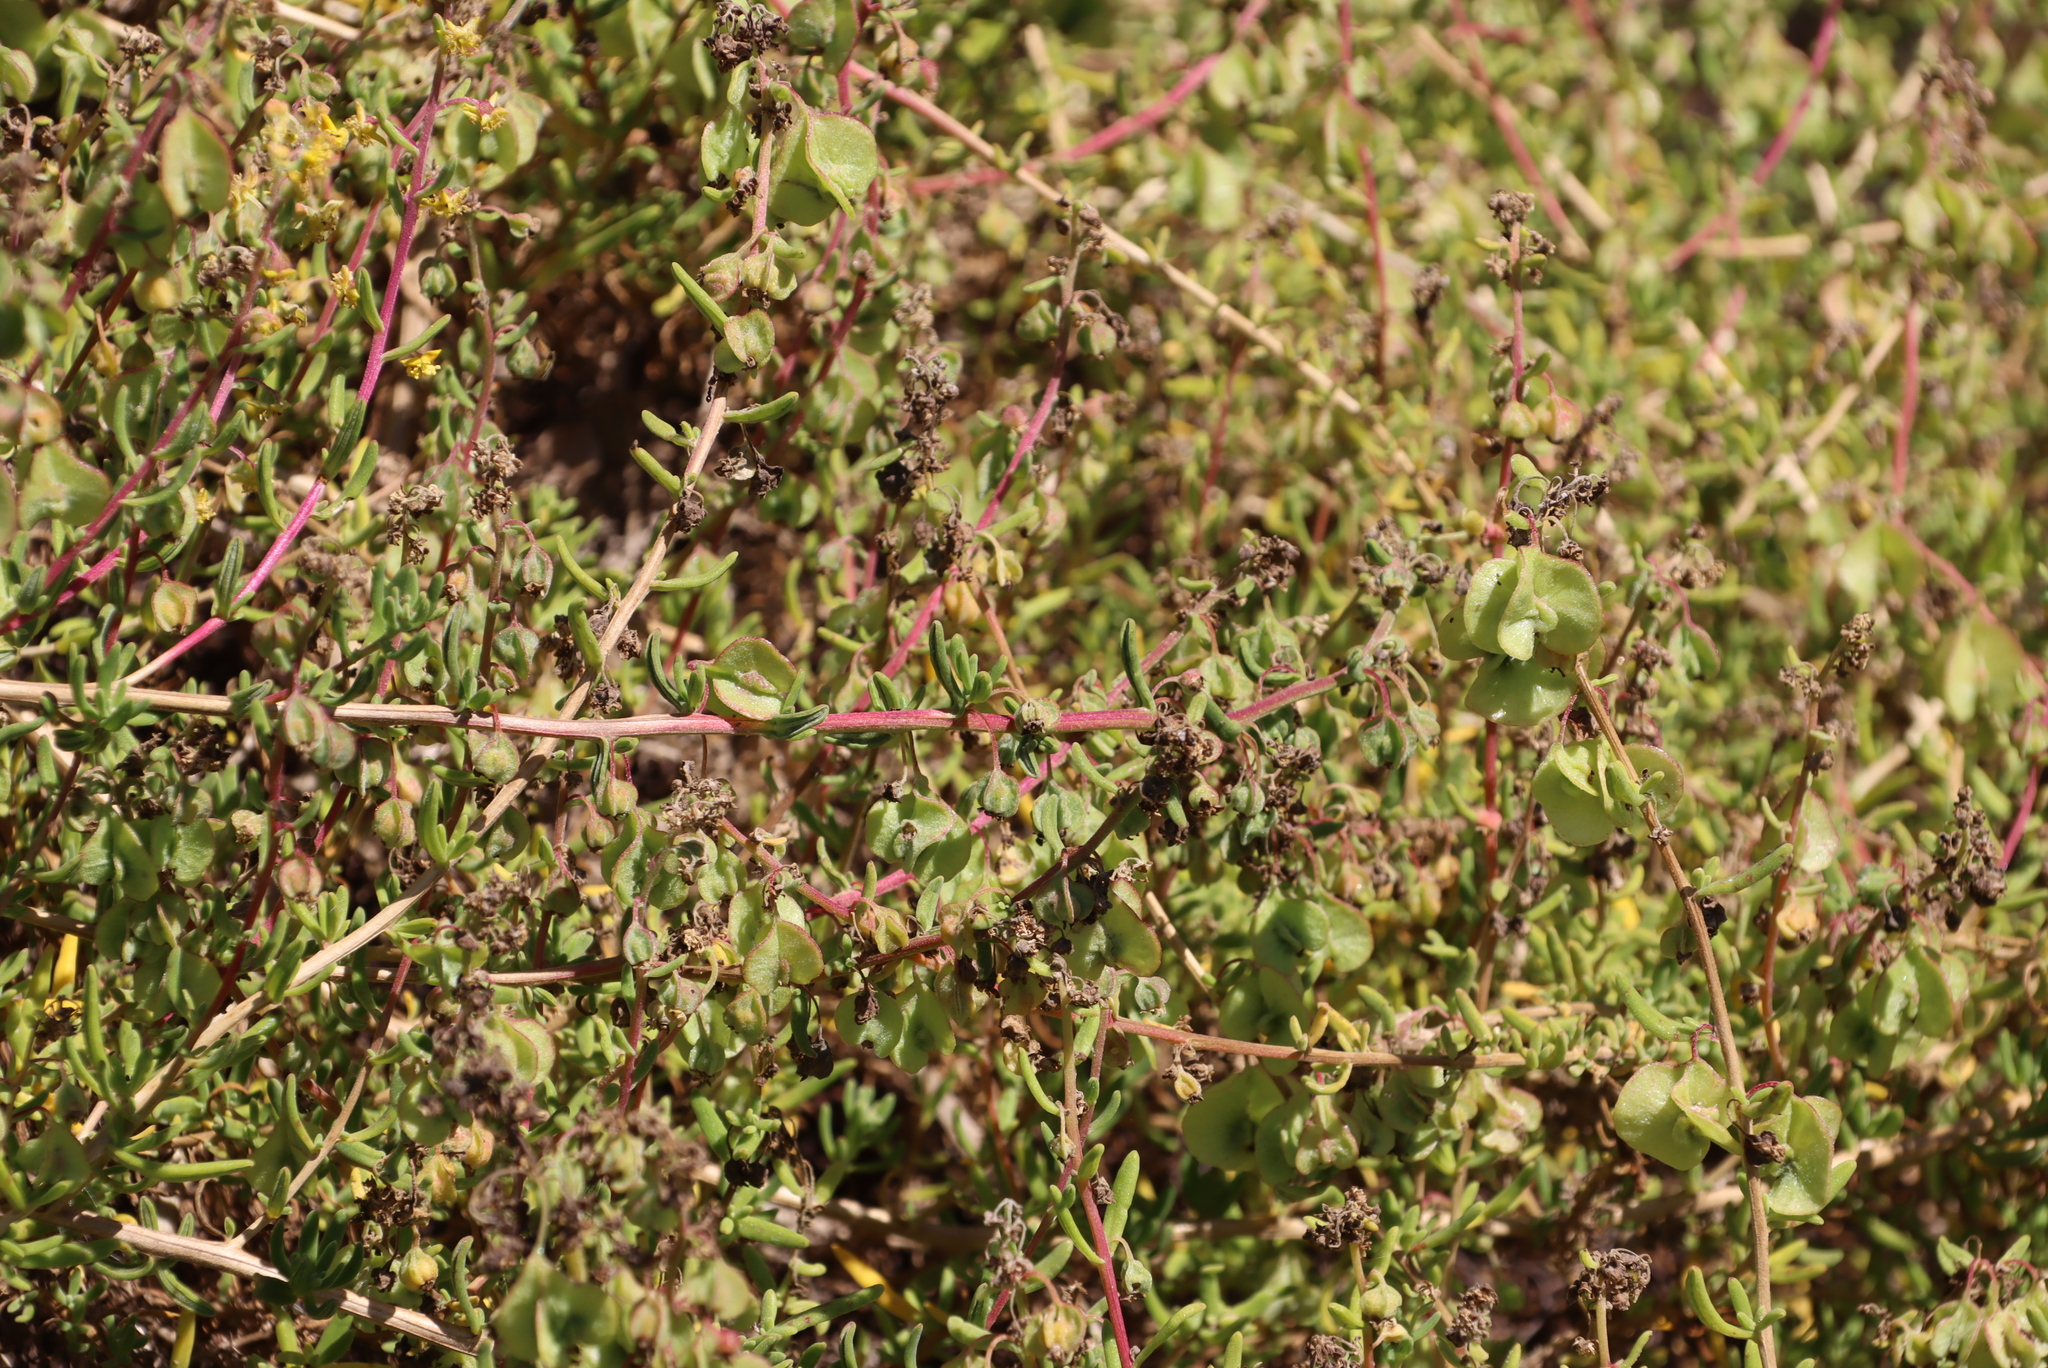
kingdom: Plantae
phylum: Tracheophyta
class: Magnoliopsida
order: Caryophyllales
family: Aizoaceae
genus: Tetragonia
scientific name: Tetragonia fruticosa
